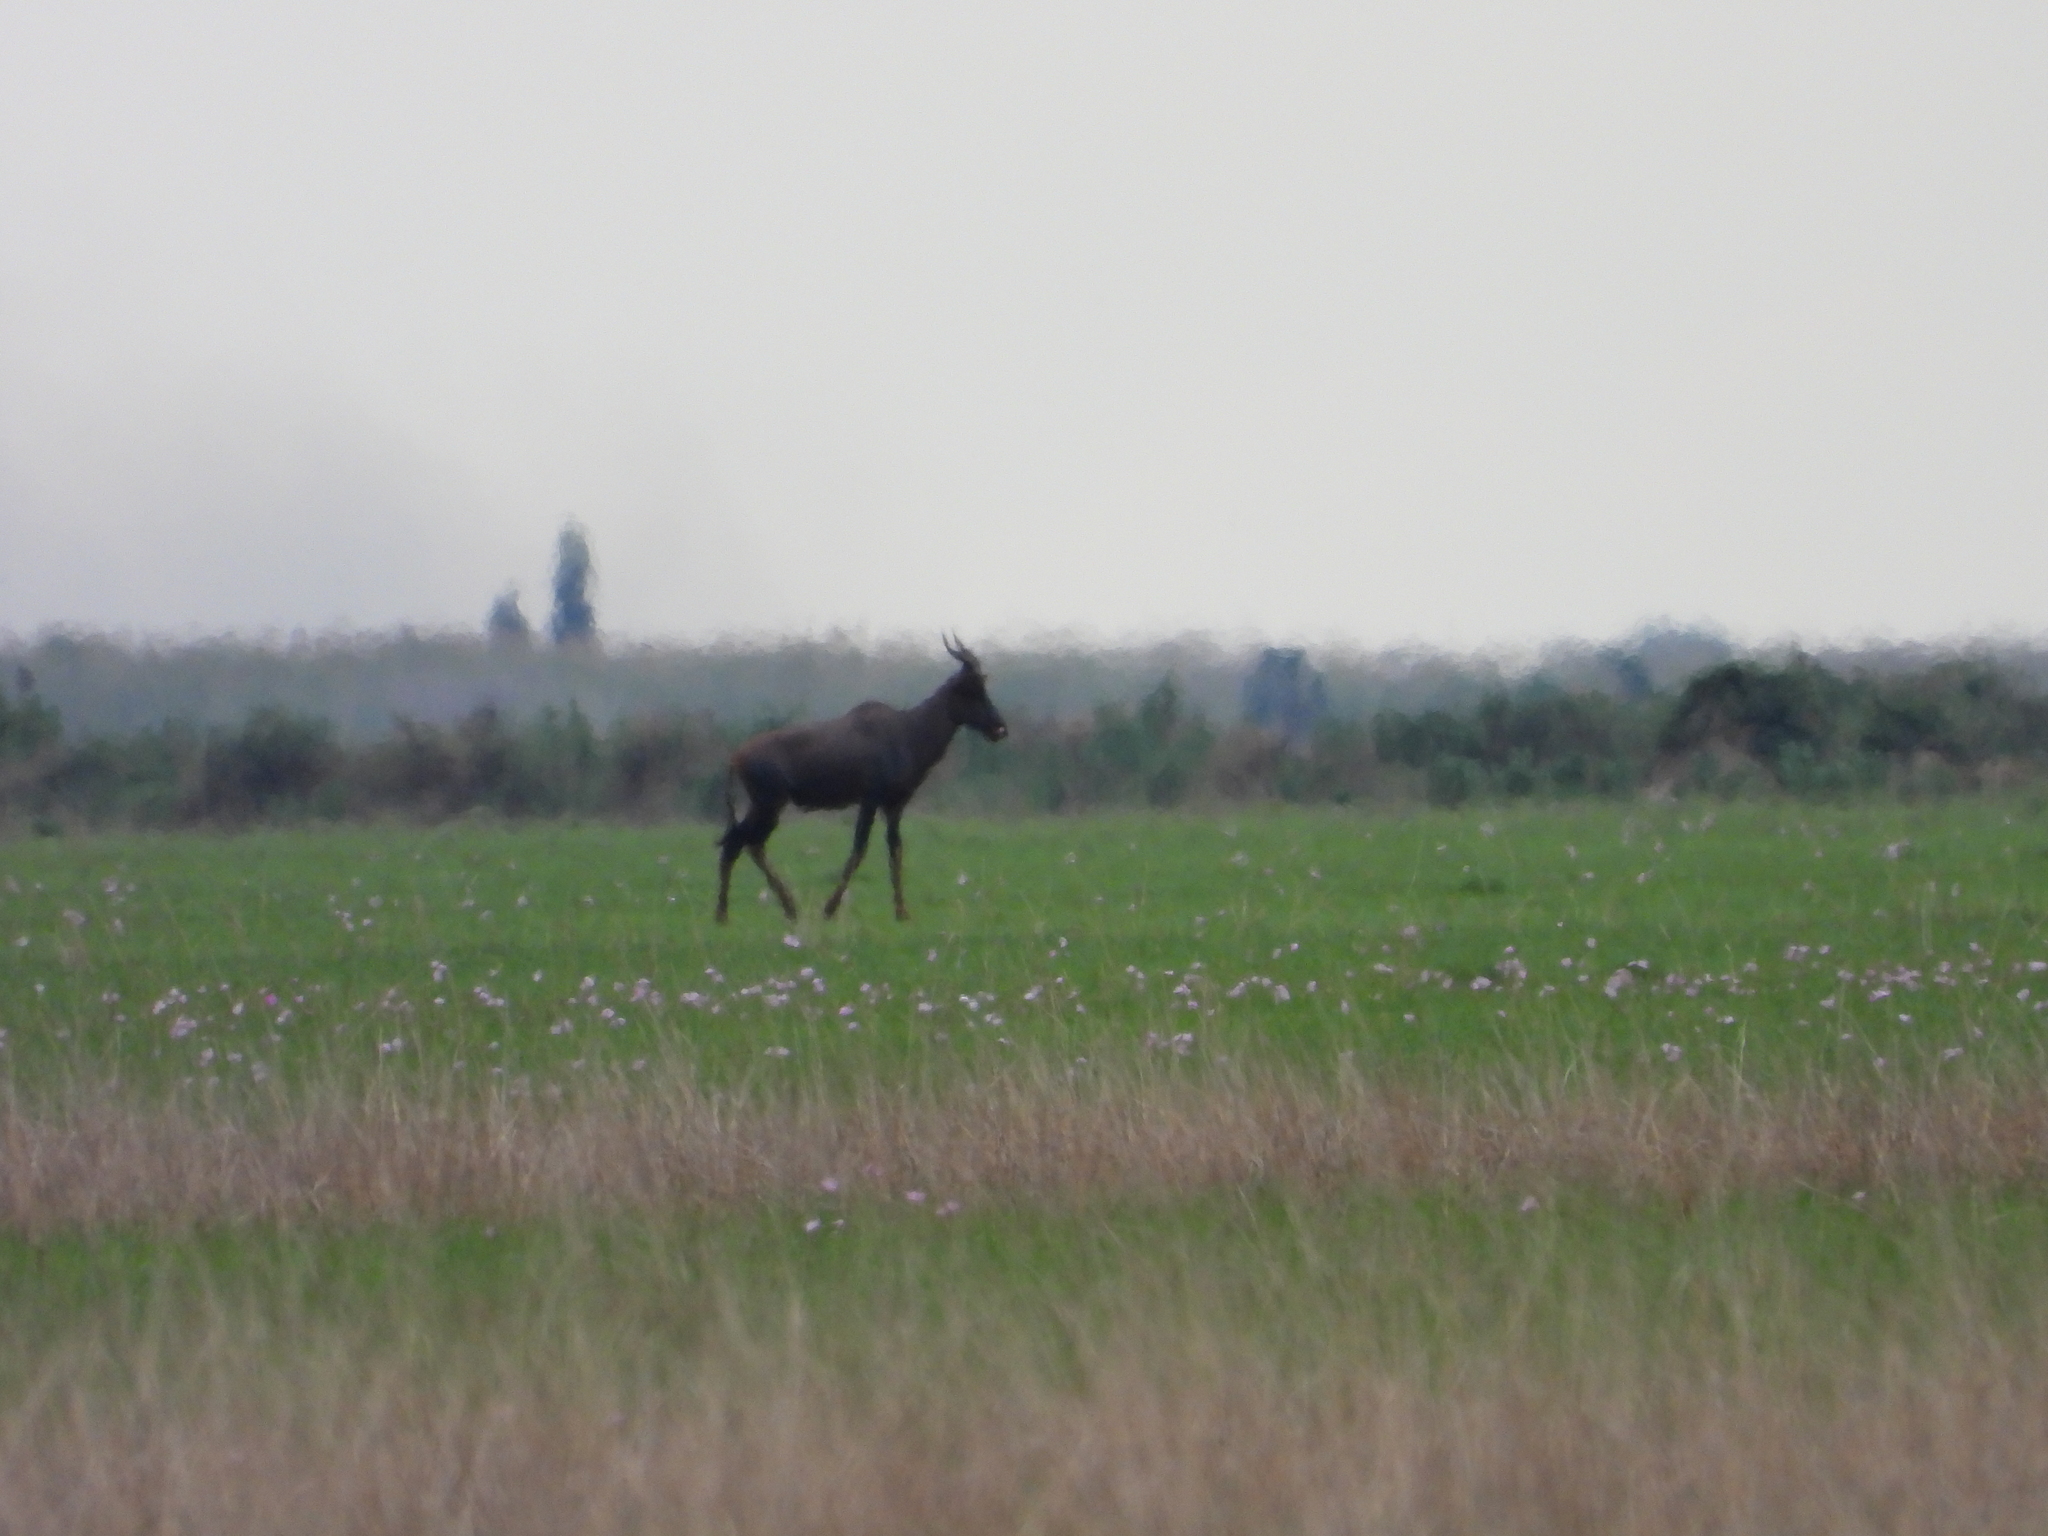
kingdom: Animalia
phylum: Chordata
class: Mammalia
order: Artiodactyla
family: Bovidae
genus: Damaliscus
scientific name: Damaliscus lunatus
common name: Common tsessebe
